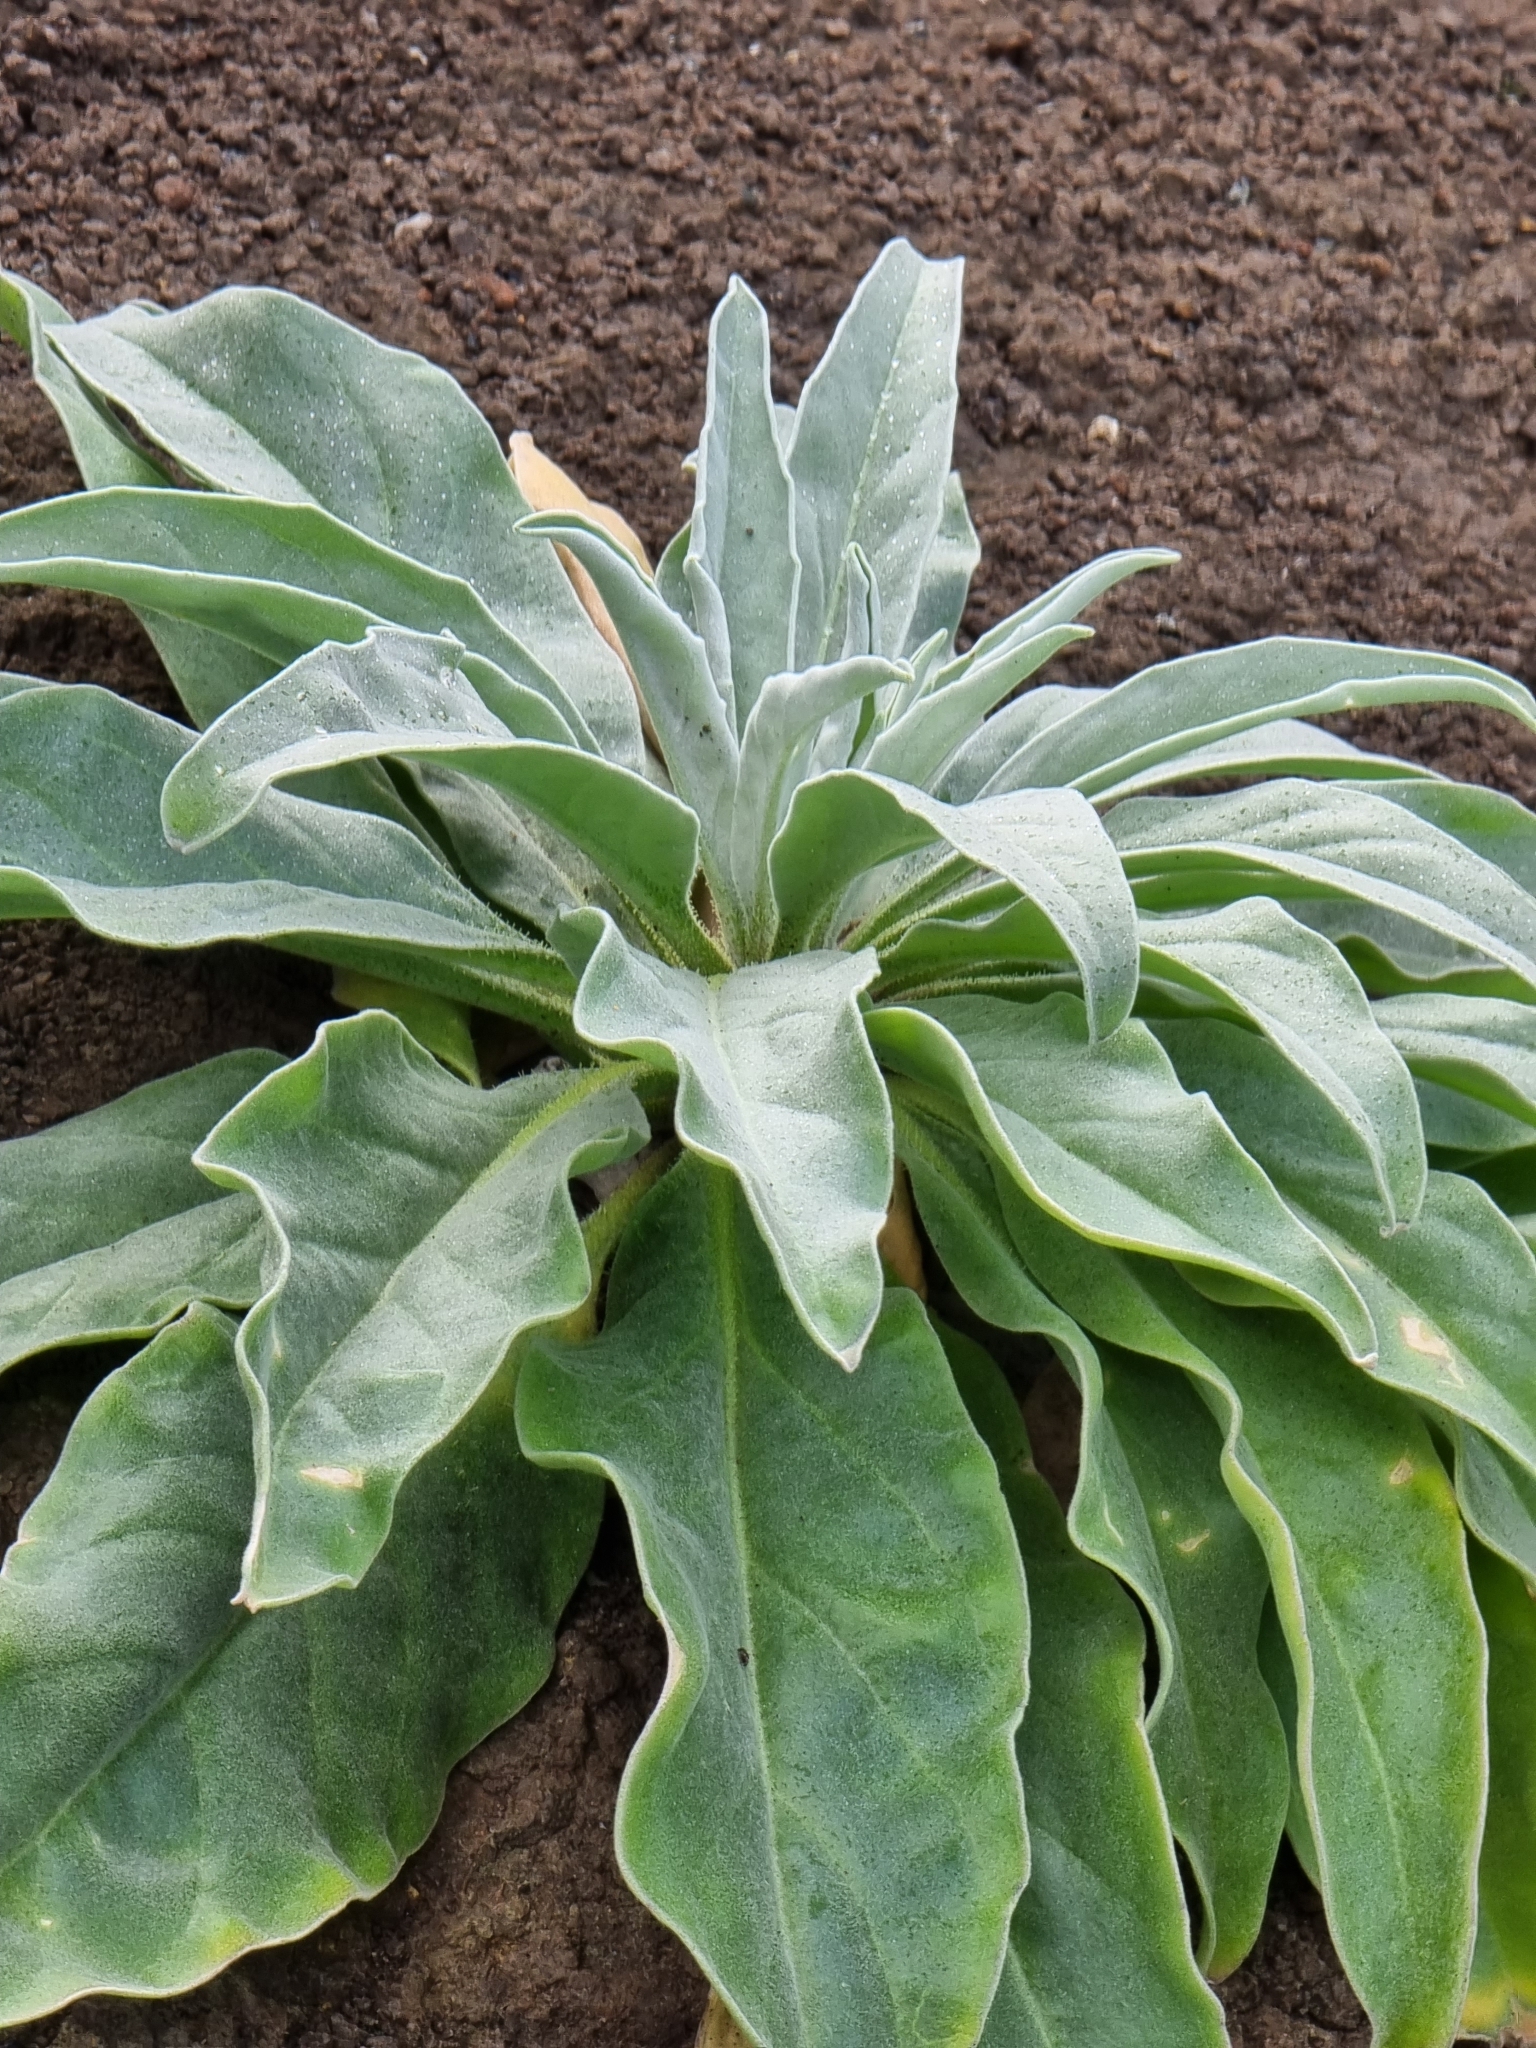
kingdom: Plantae
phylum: Tracheophyta
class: Magnoliopsida
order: Asterales
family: Asteraceae
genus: Andryala
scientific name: Andryala glandulosa
